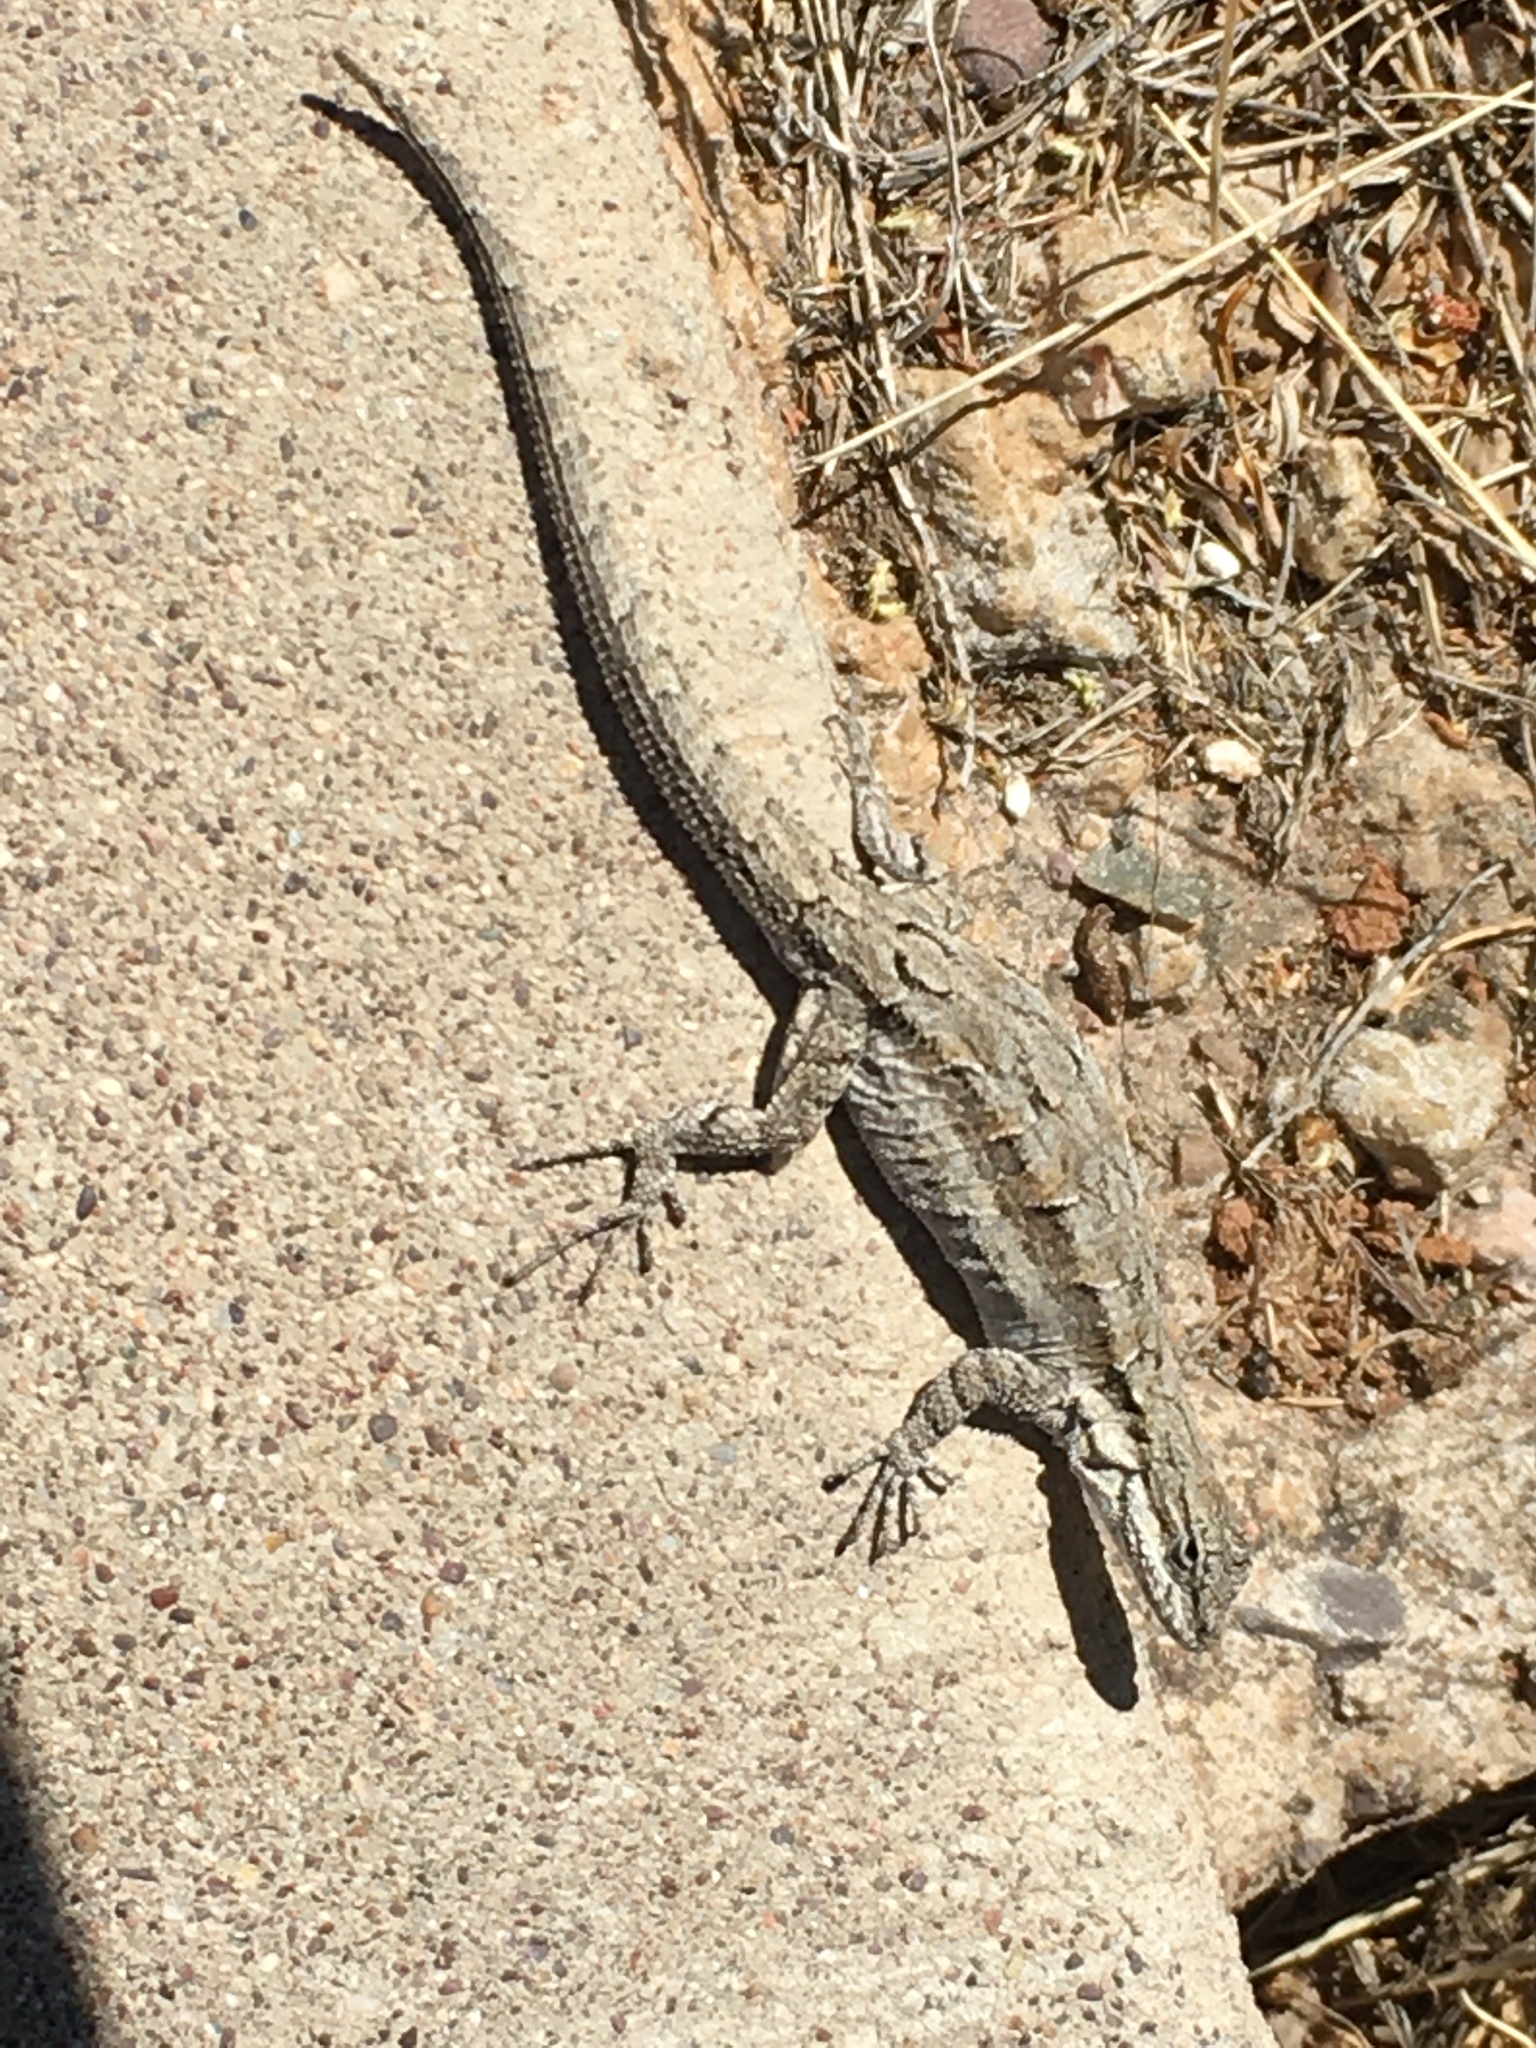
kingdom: Animalia
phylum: Chordata
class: Squamata
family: Phrynosomatidae
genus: Urosaurus
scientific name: Urosaurus ornatus
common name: Ornate tree lizard
